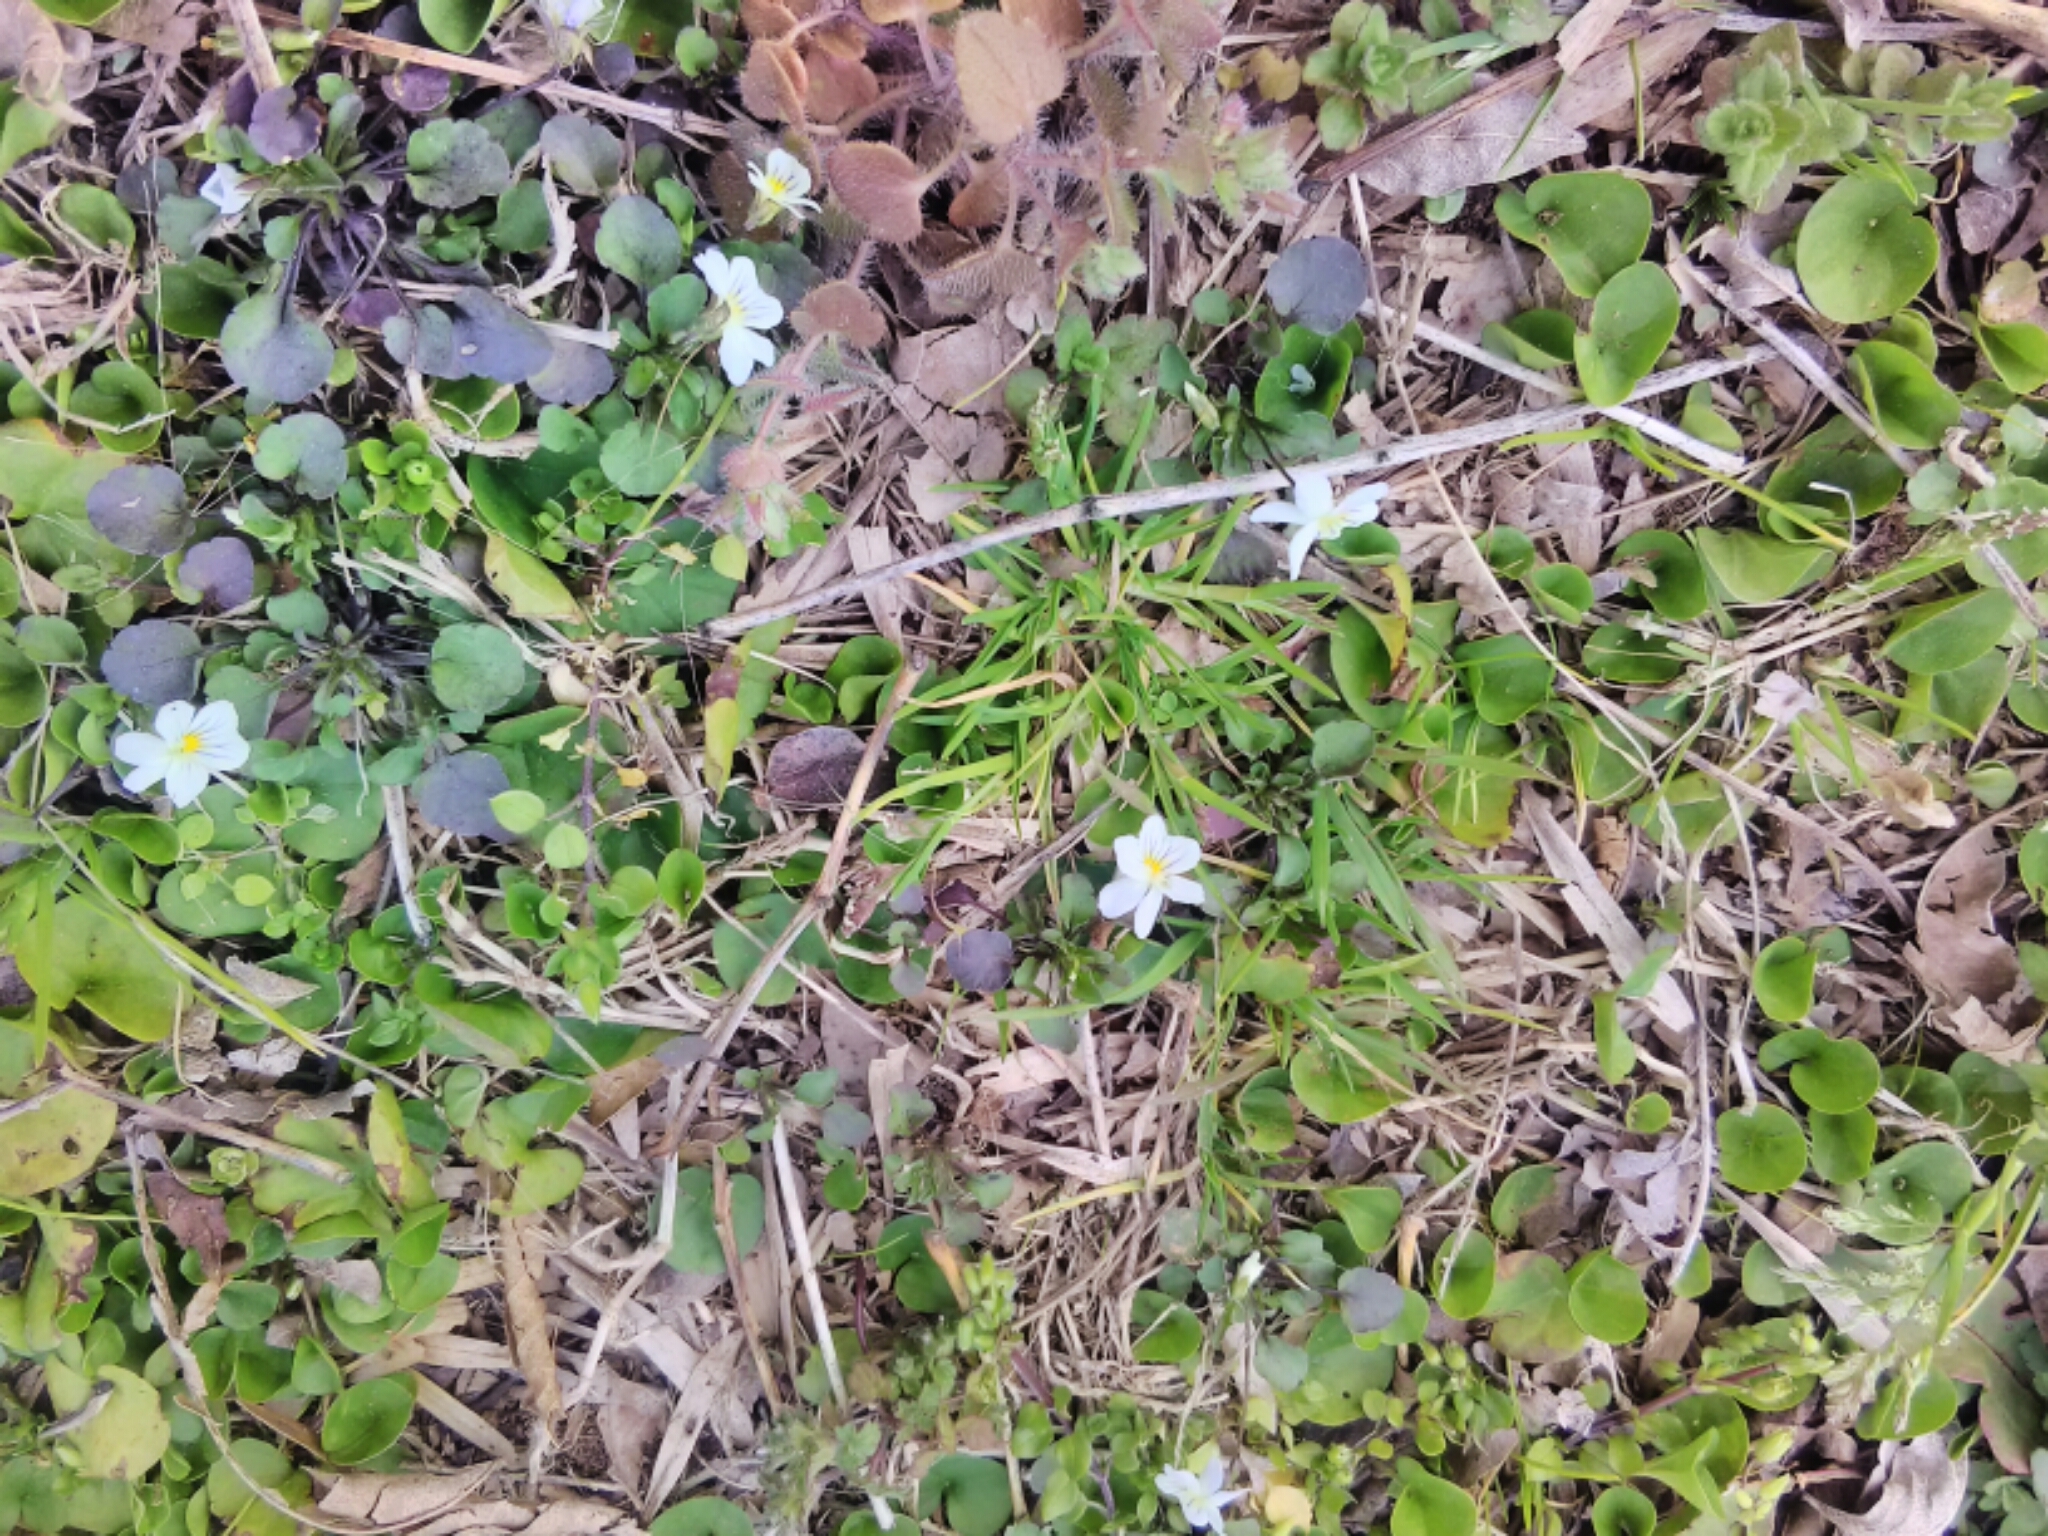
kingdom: Plantae
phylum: Tracheophyta
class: Magnoliopsida
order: Malpighiales
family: Violaceae
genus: Viola
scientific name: Viola rafinesquei
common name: American field pansy
